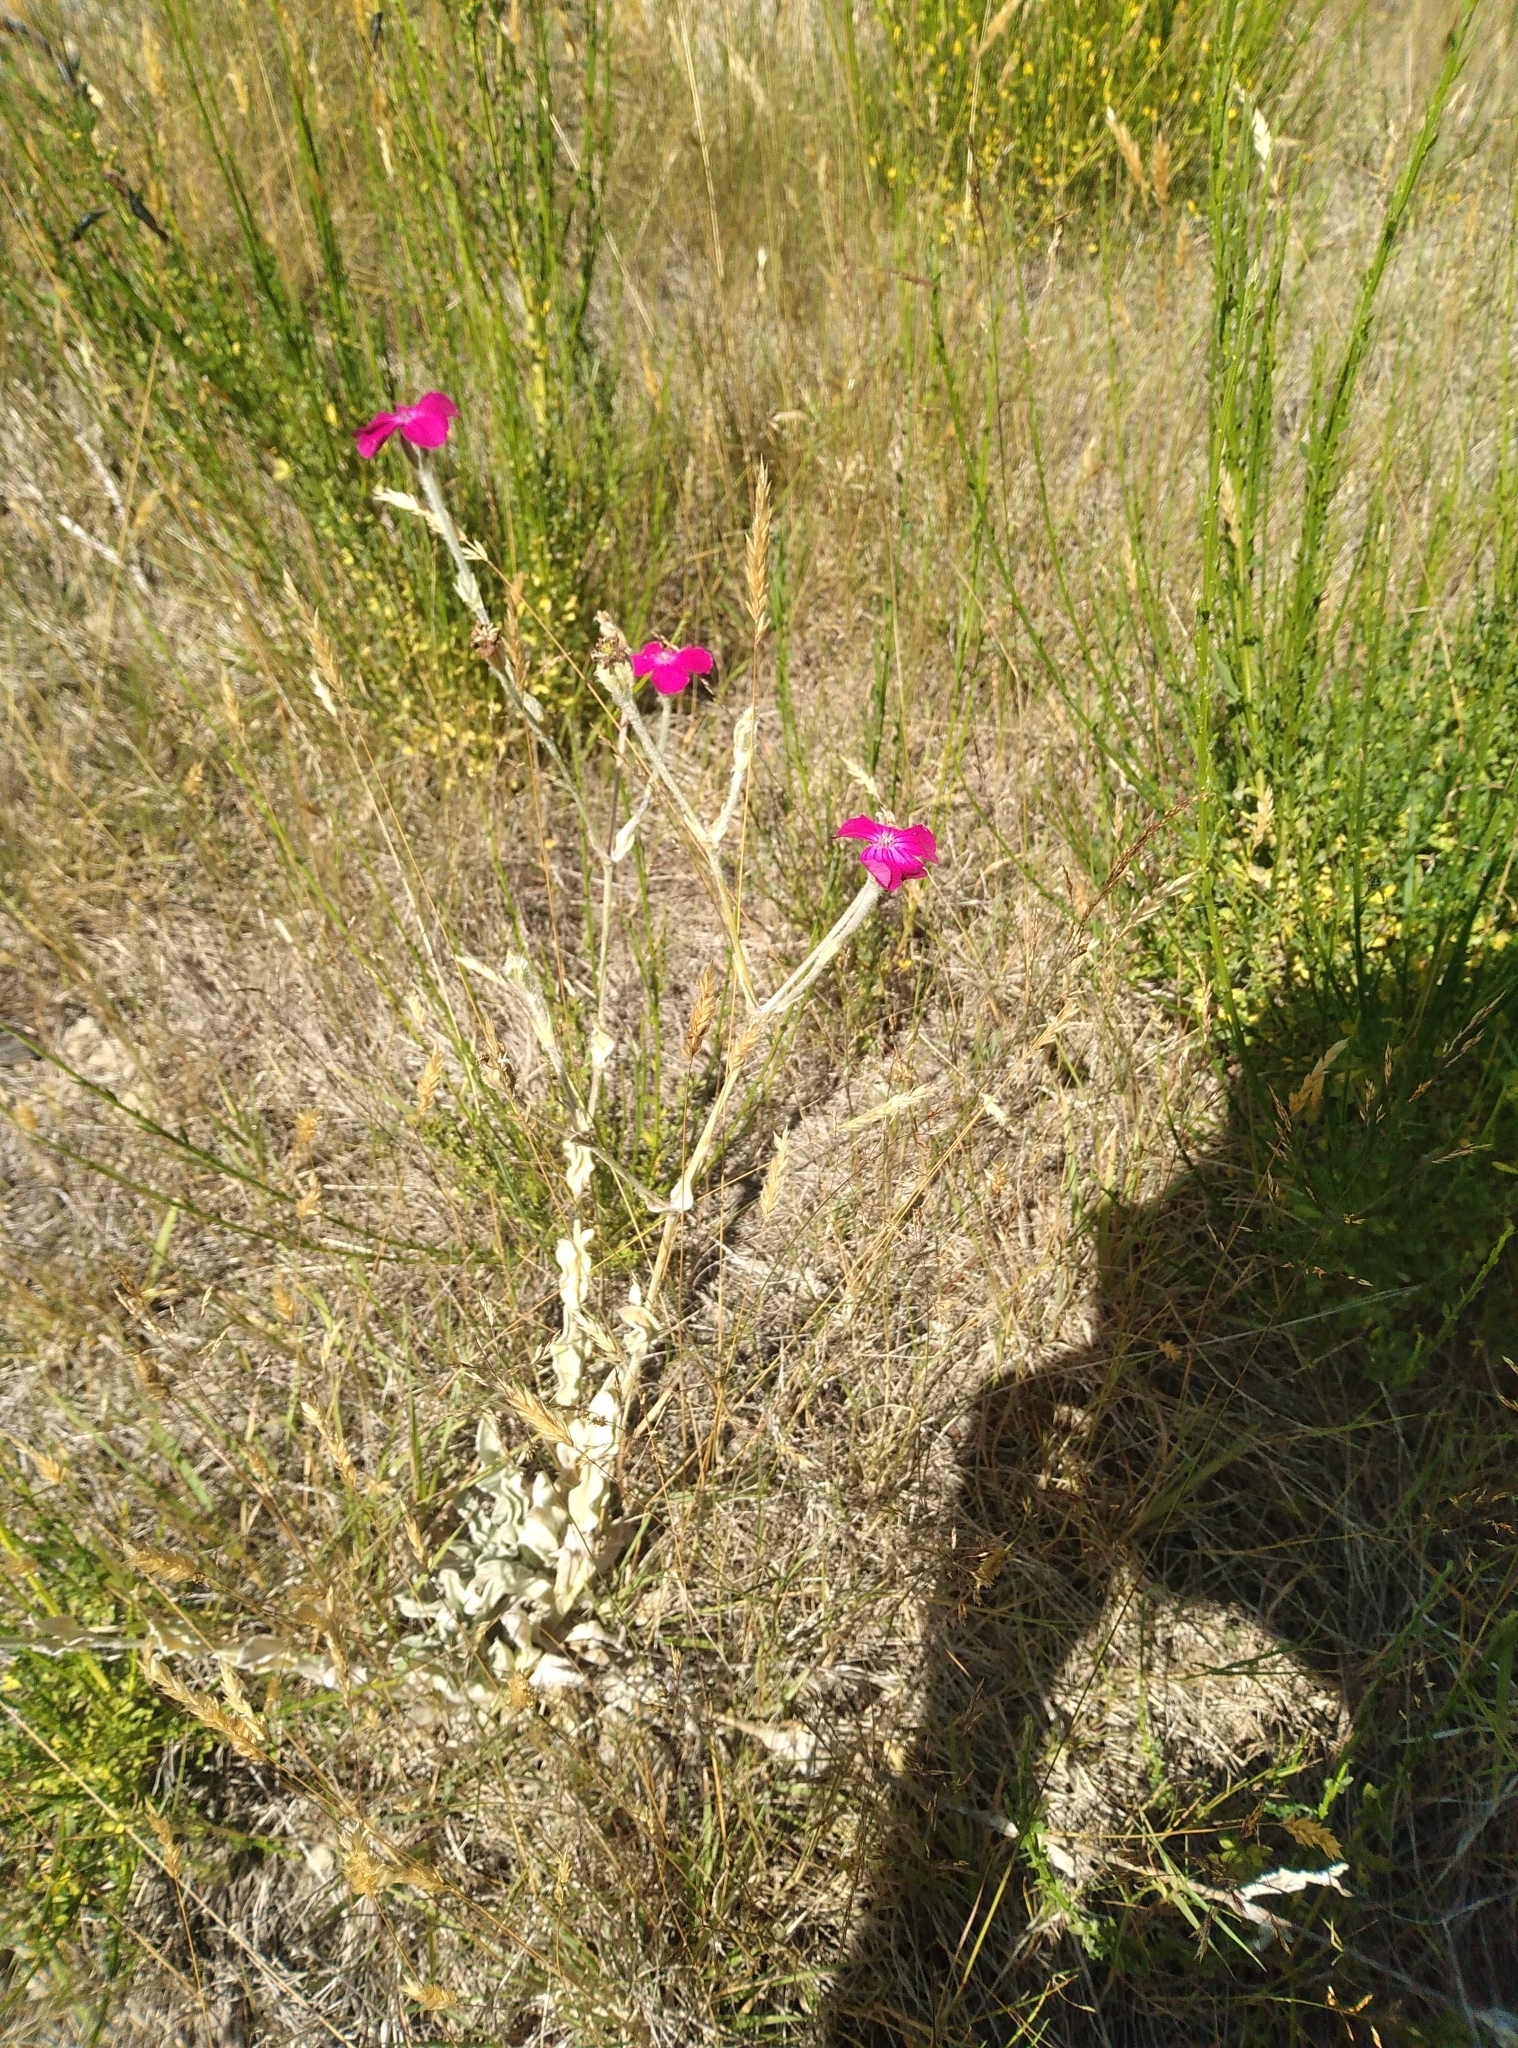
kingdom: Plantae
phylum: Tracheophyta
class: Magnoliopsida
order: Caryophyllales
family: Caryophyllaceae
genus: Silene
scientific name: Silene coronaria
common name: Rose campion
